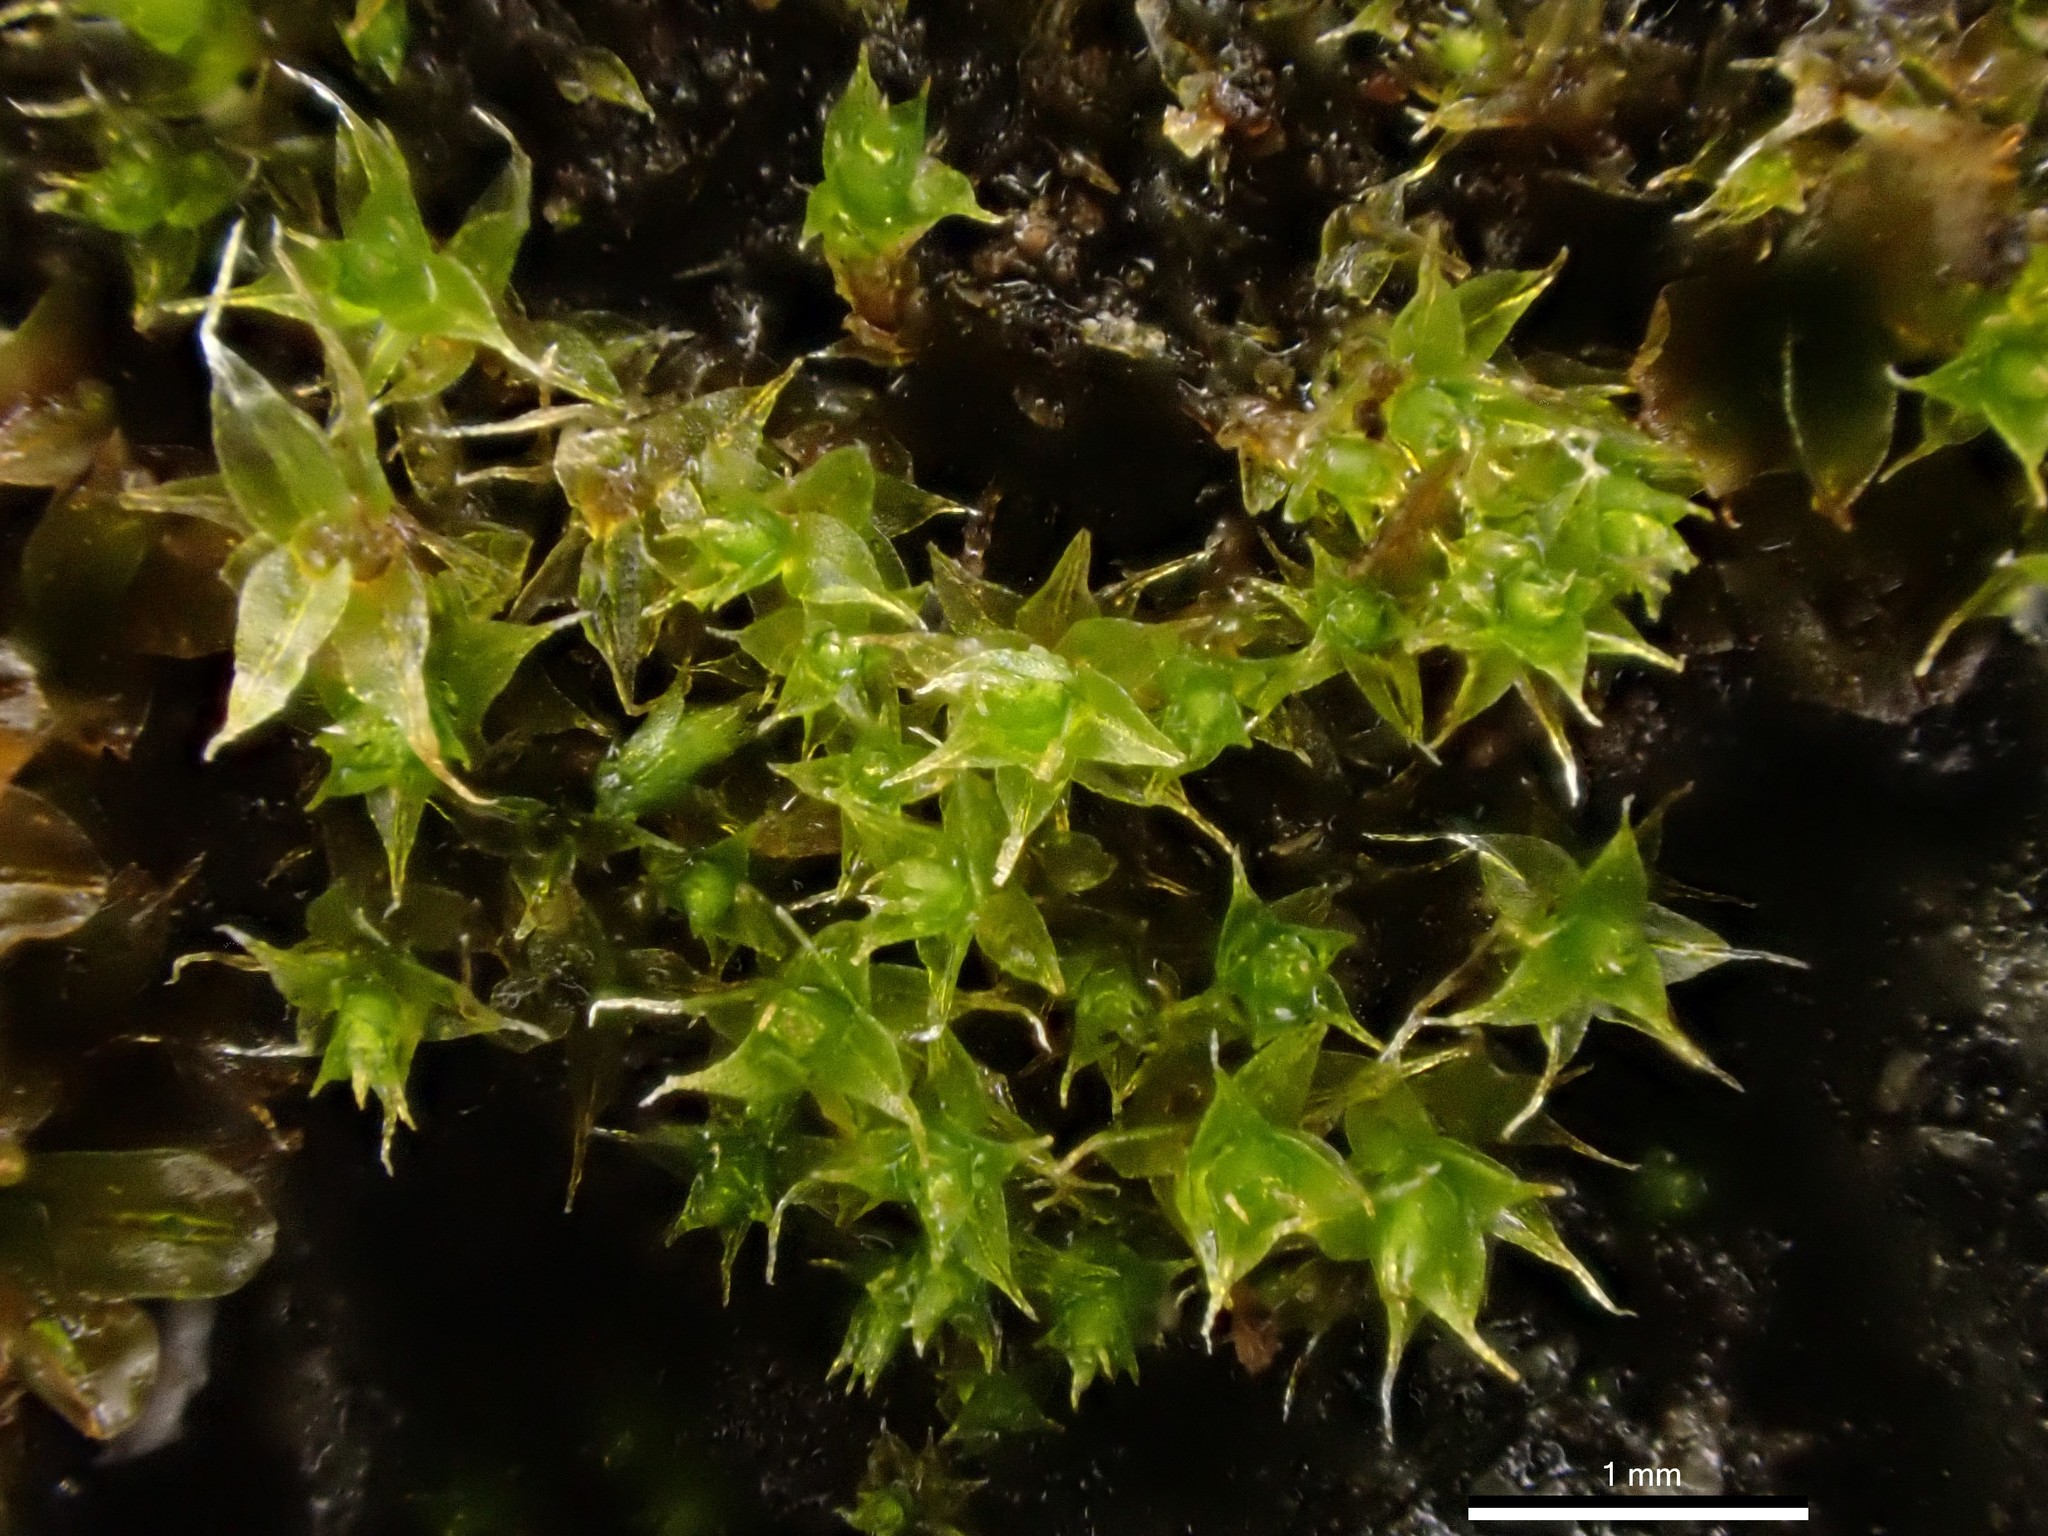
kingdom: Plantae
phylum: Bryophyta
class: Bryopsida
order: Pottiales
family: Pottiaceae
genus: Tortula
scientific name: Tortula muralis
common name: Wall screw-moss
